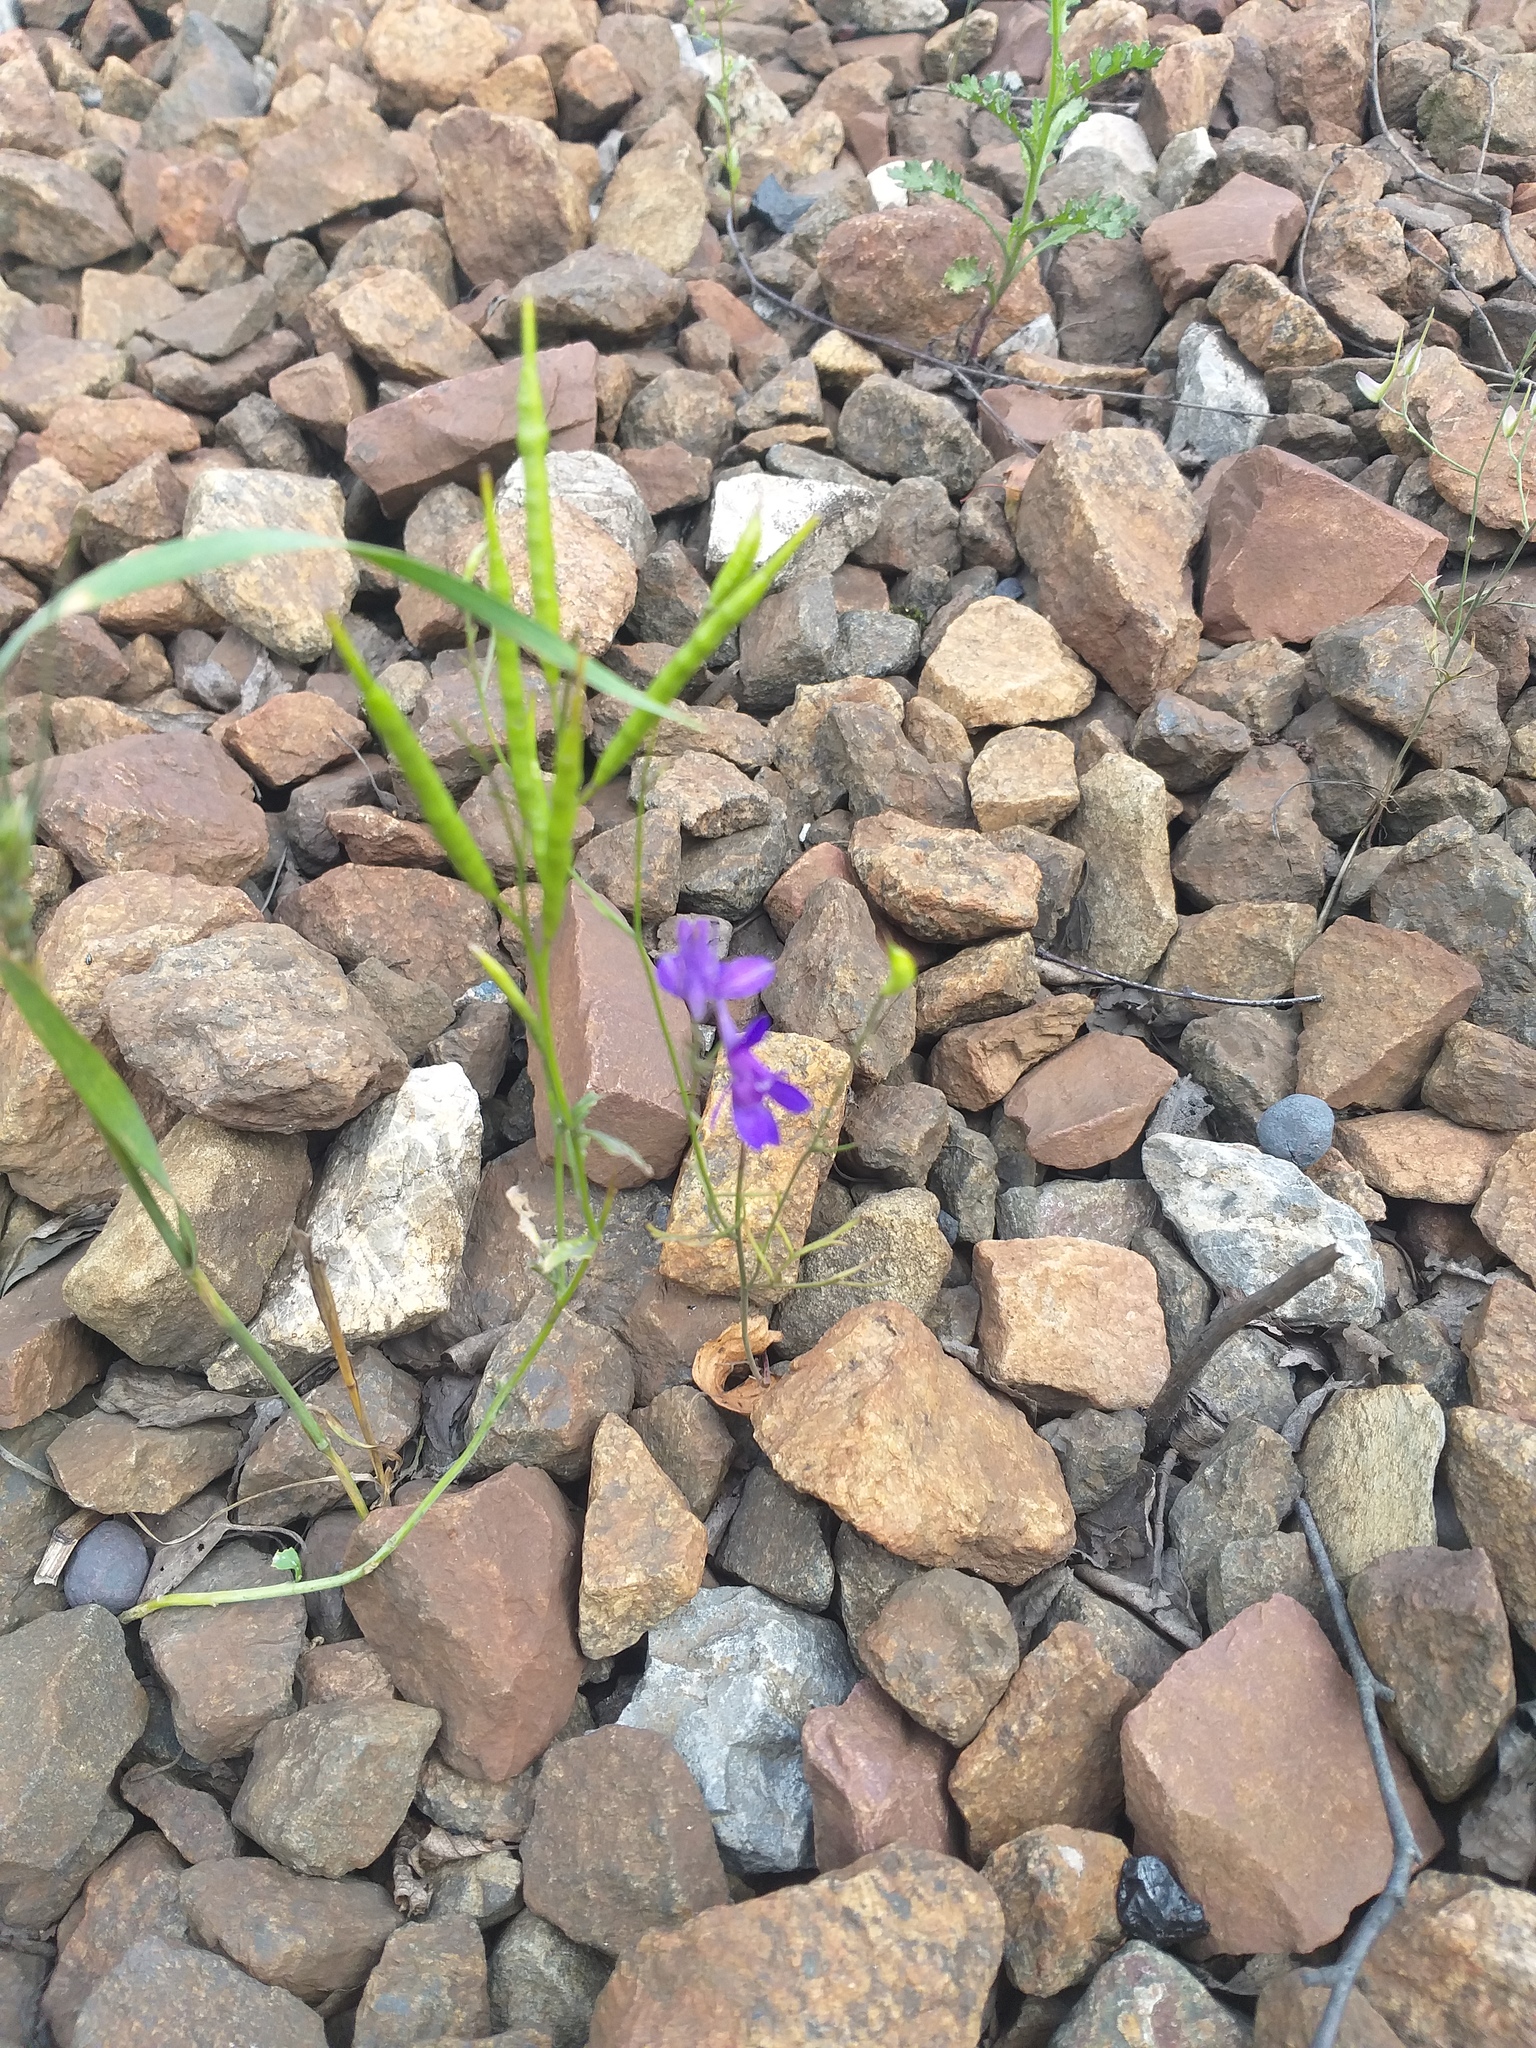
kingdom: Plantae
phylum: Tracheophyta
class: Magnoliopsida
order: Ranunculales
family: Ranunculaceae
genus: Delphinium
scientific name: Delphinium consolida
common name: Branching larkspur
